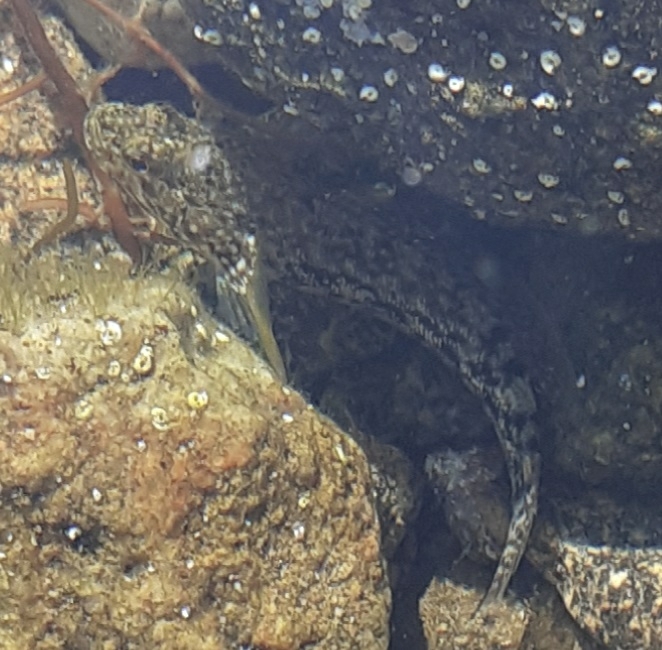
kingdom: Animalia
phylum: Chordata
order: Perciformes
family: Gobiidae
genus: Gobius
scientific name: Gobius cobitis
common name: Giant goby
